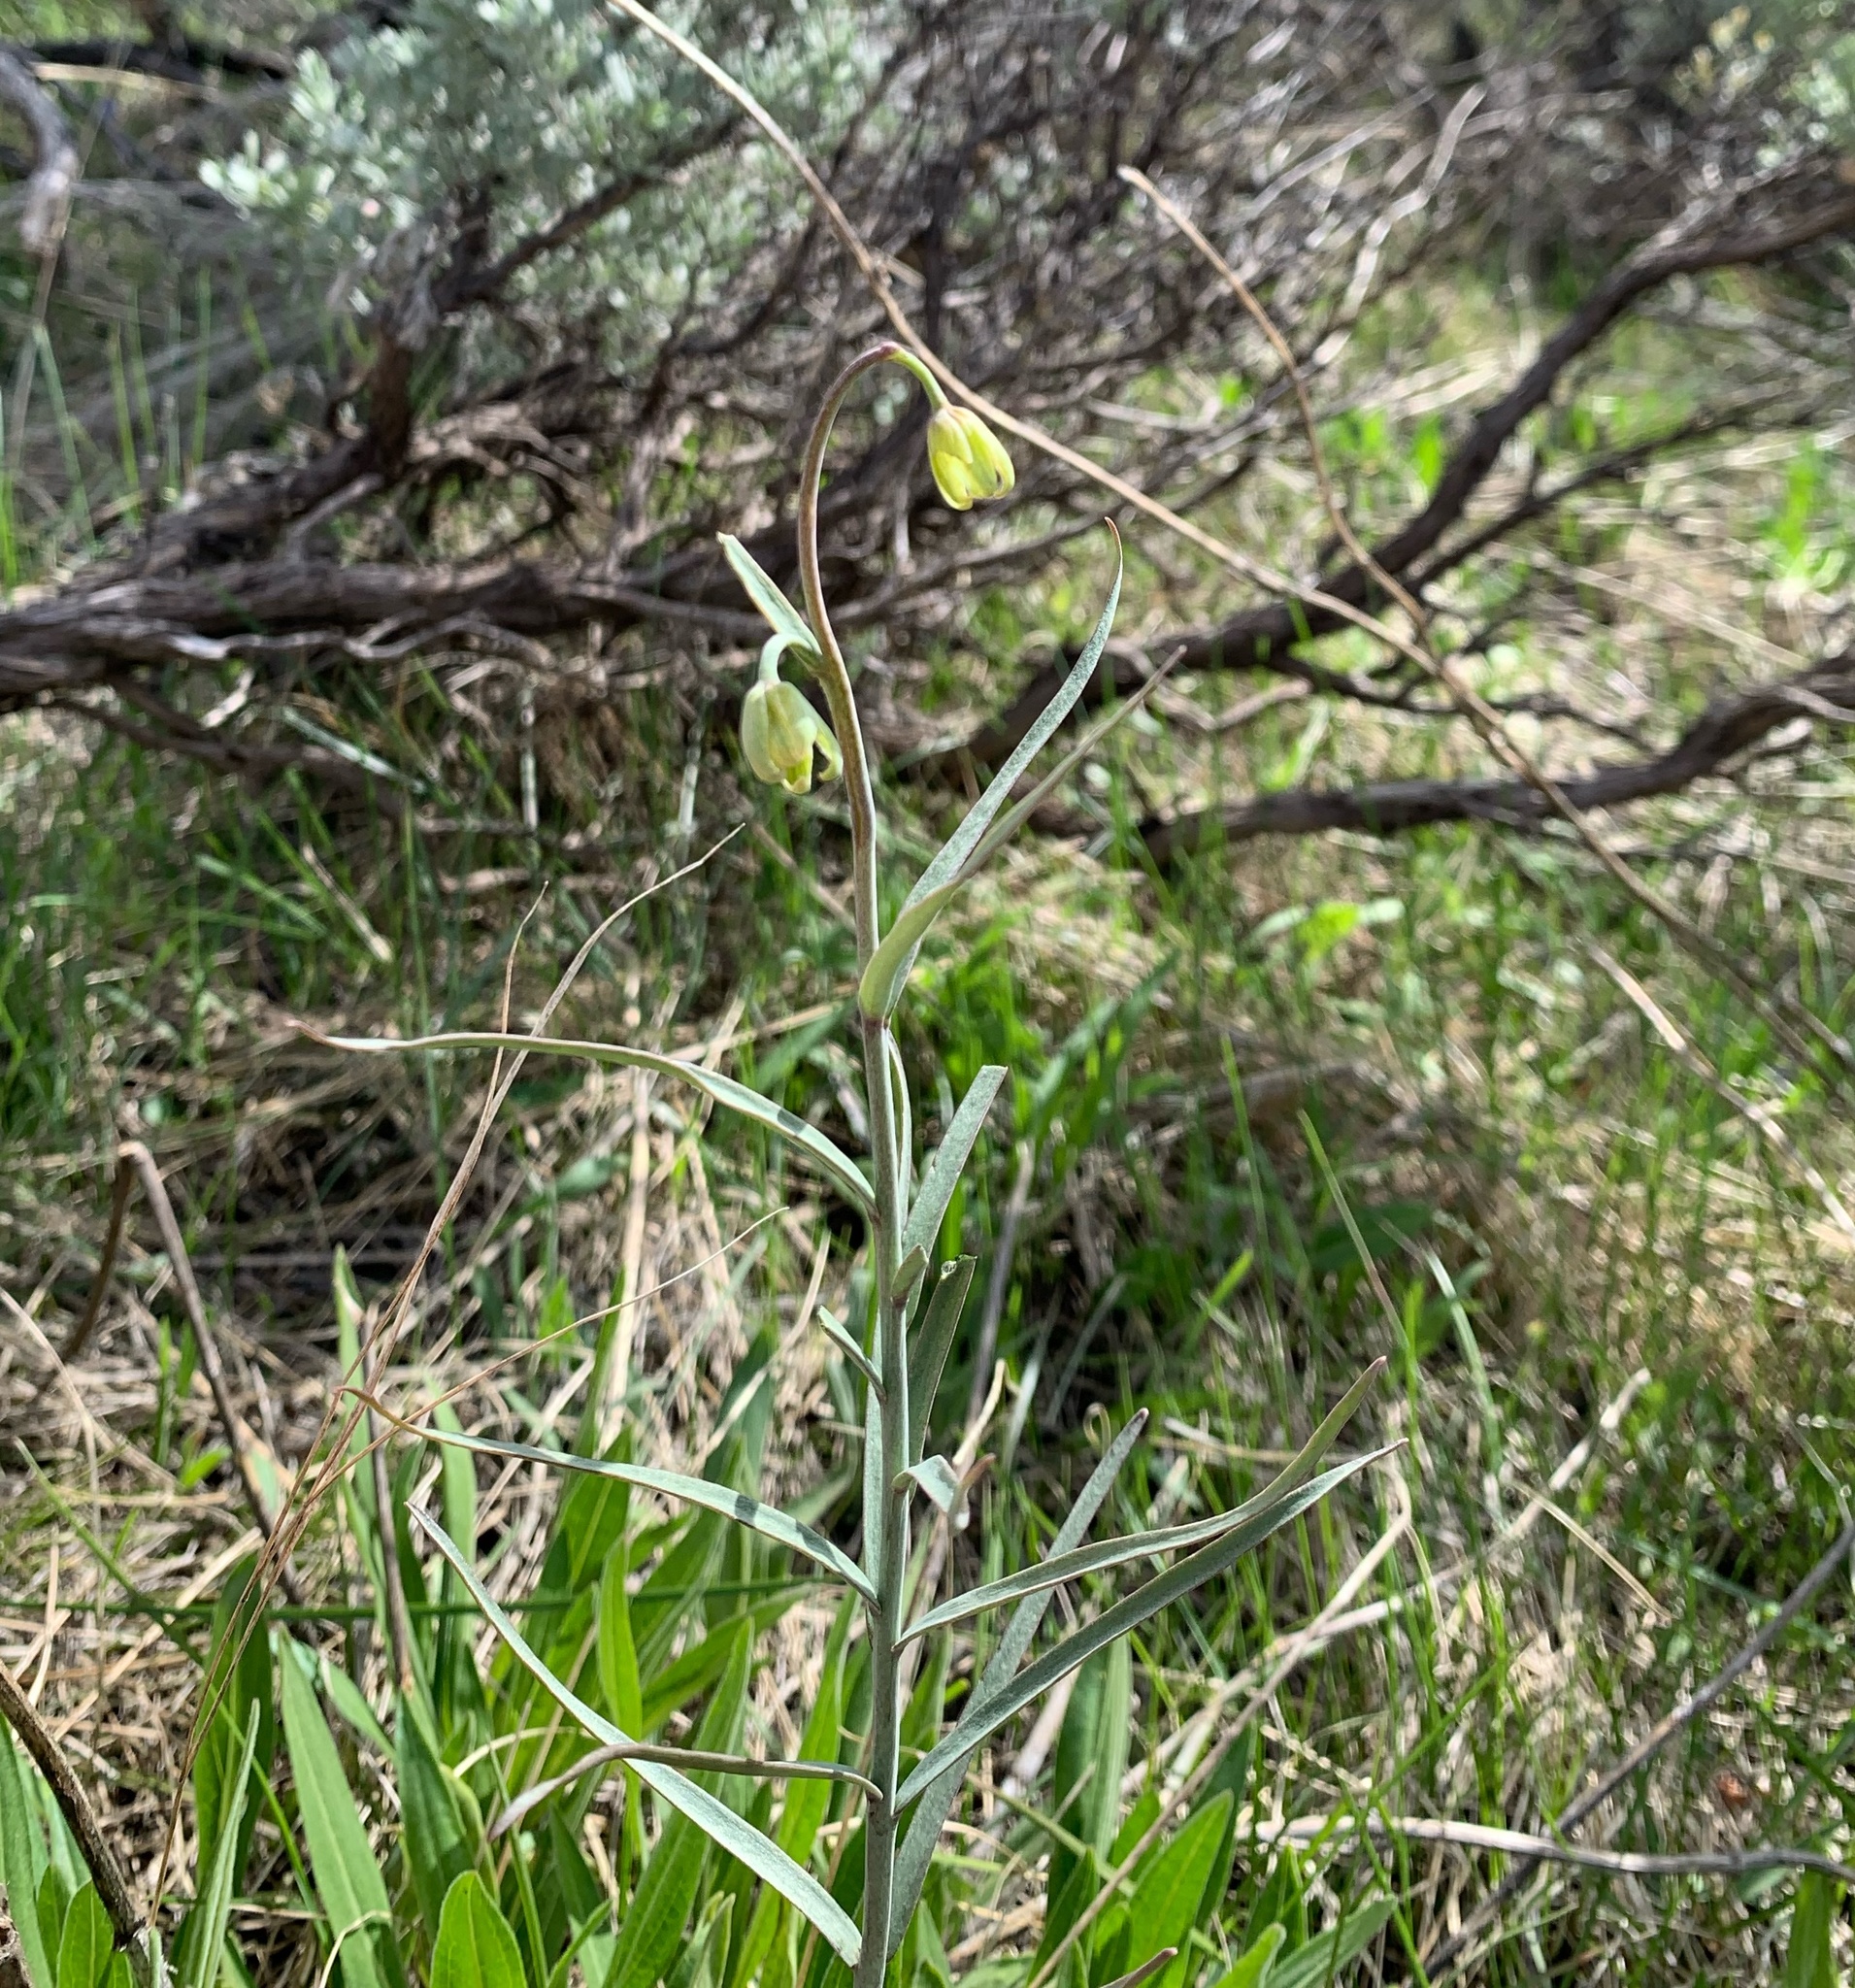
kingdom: Plantae
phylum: Tracheophyta
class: Liliopsida
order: Liliales
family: Liliaceae
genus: Fritillaria
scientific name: Fritillaria atropurpurea
